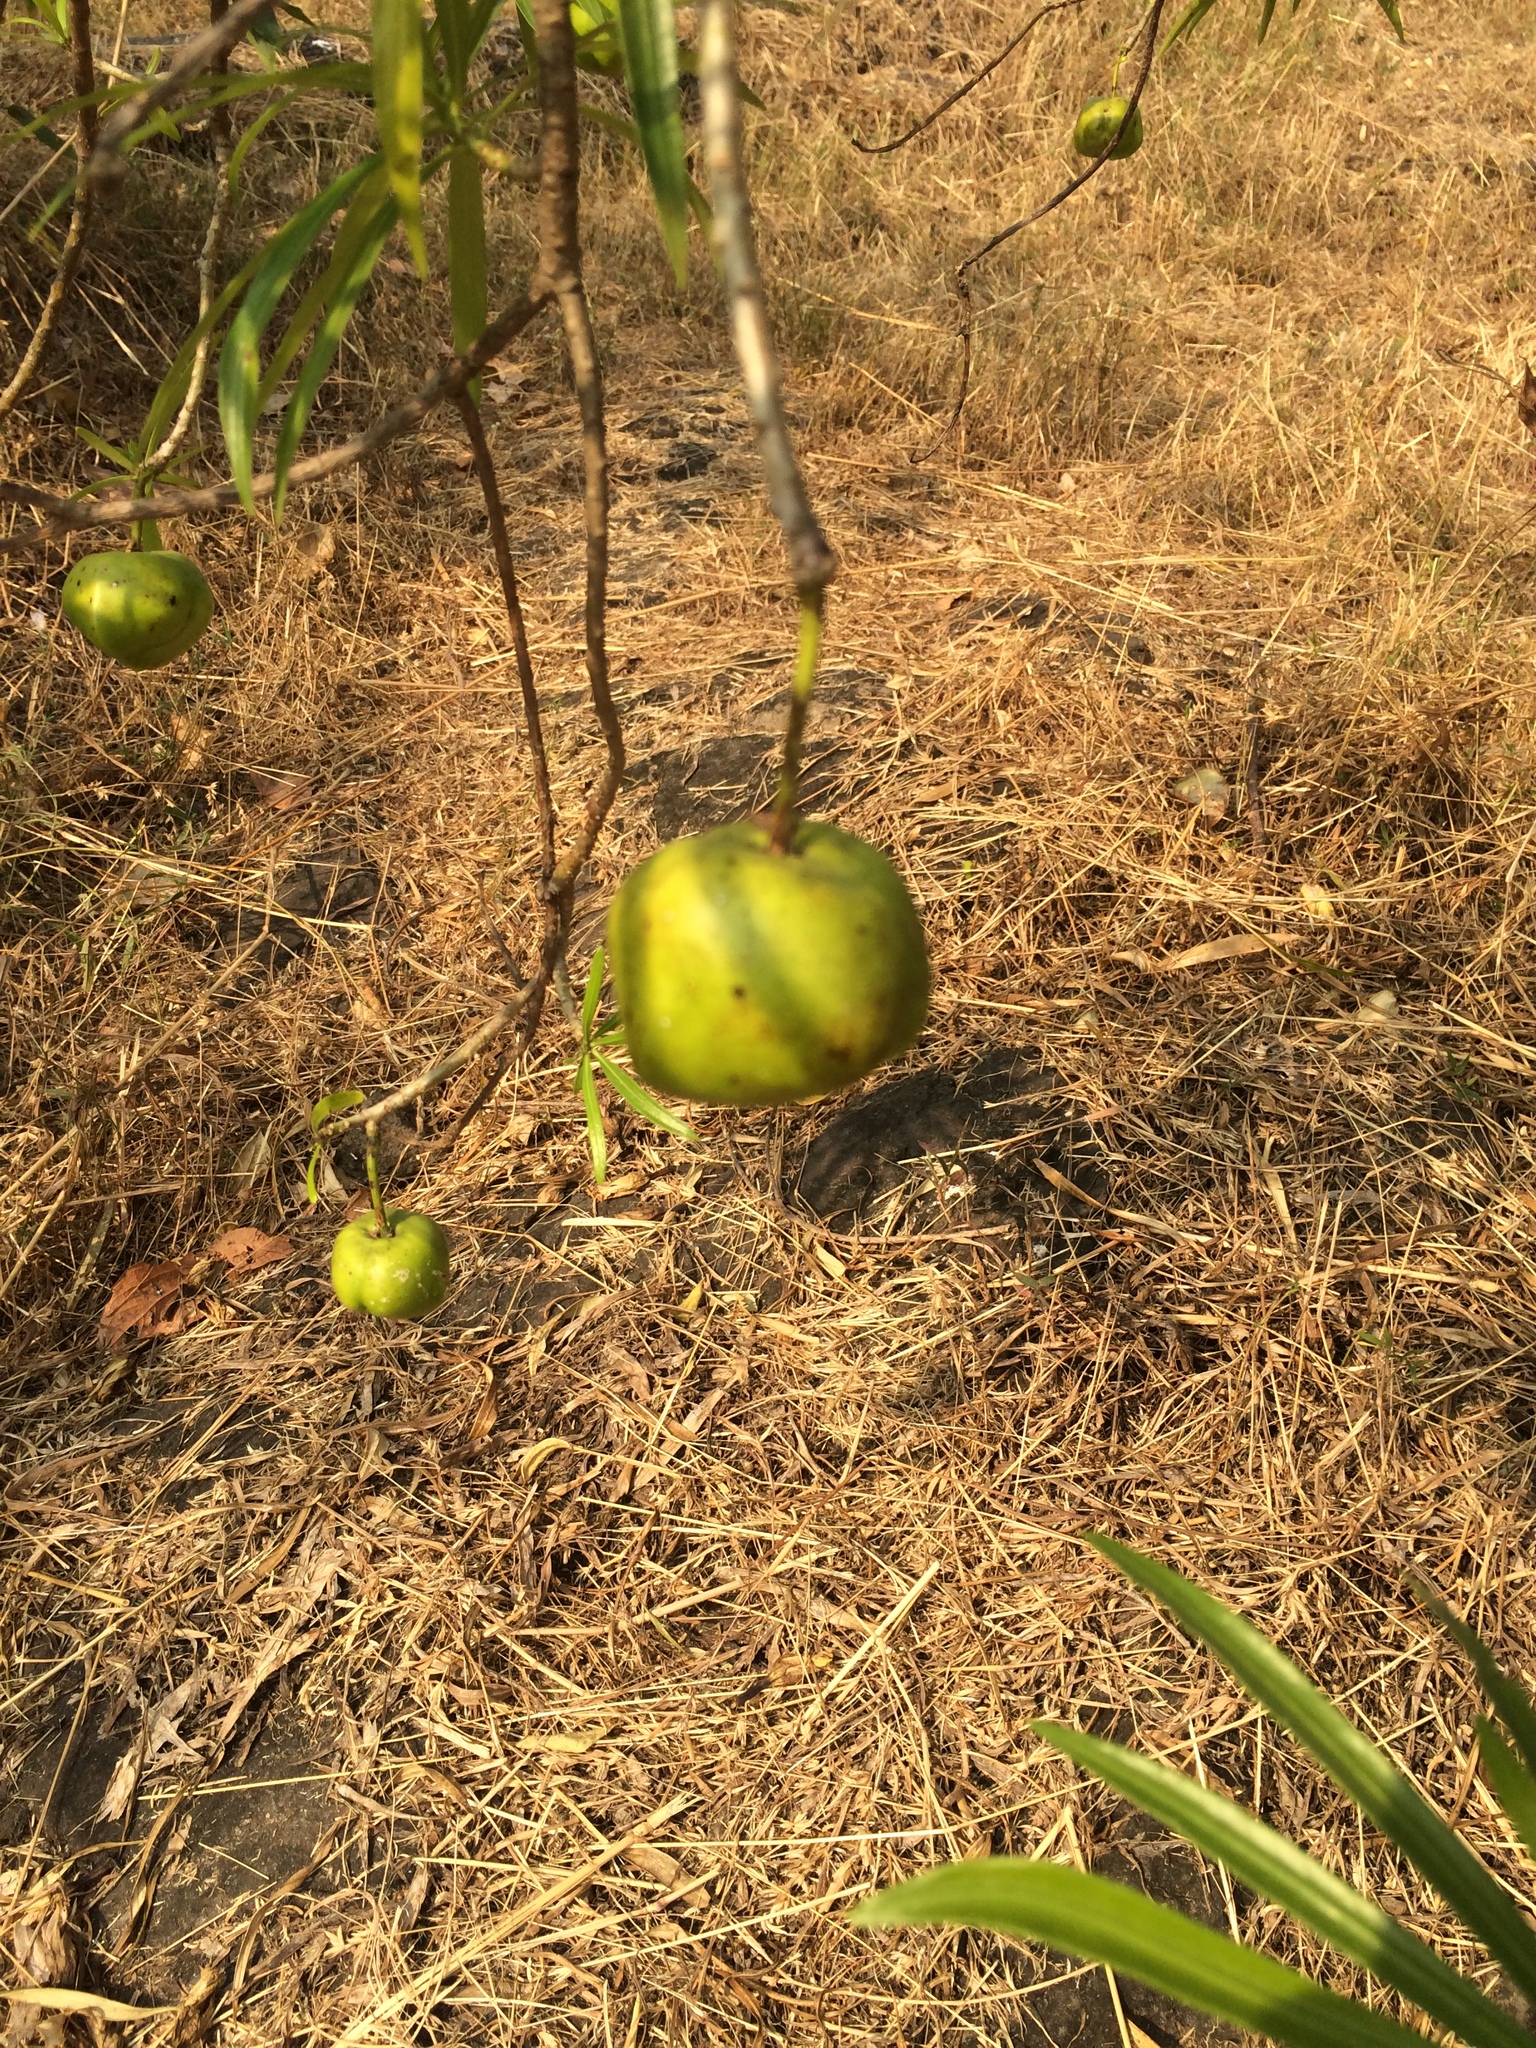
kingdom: Plantae
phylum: Tracheophyta
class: Magnoliopsida
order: Gentianales
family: Apocynaceae
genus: Cascabela
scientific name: Cascabela thevetia
